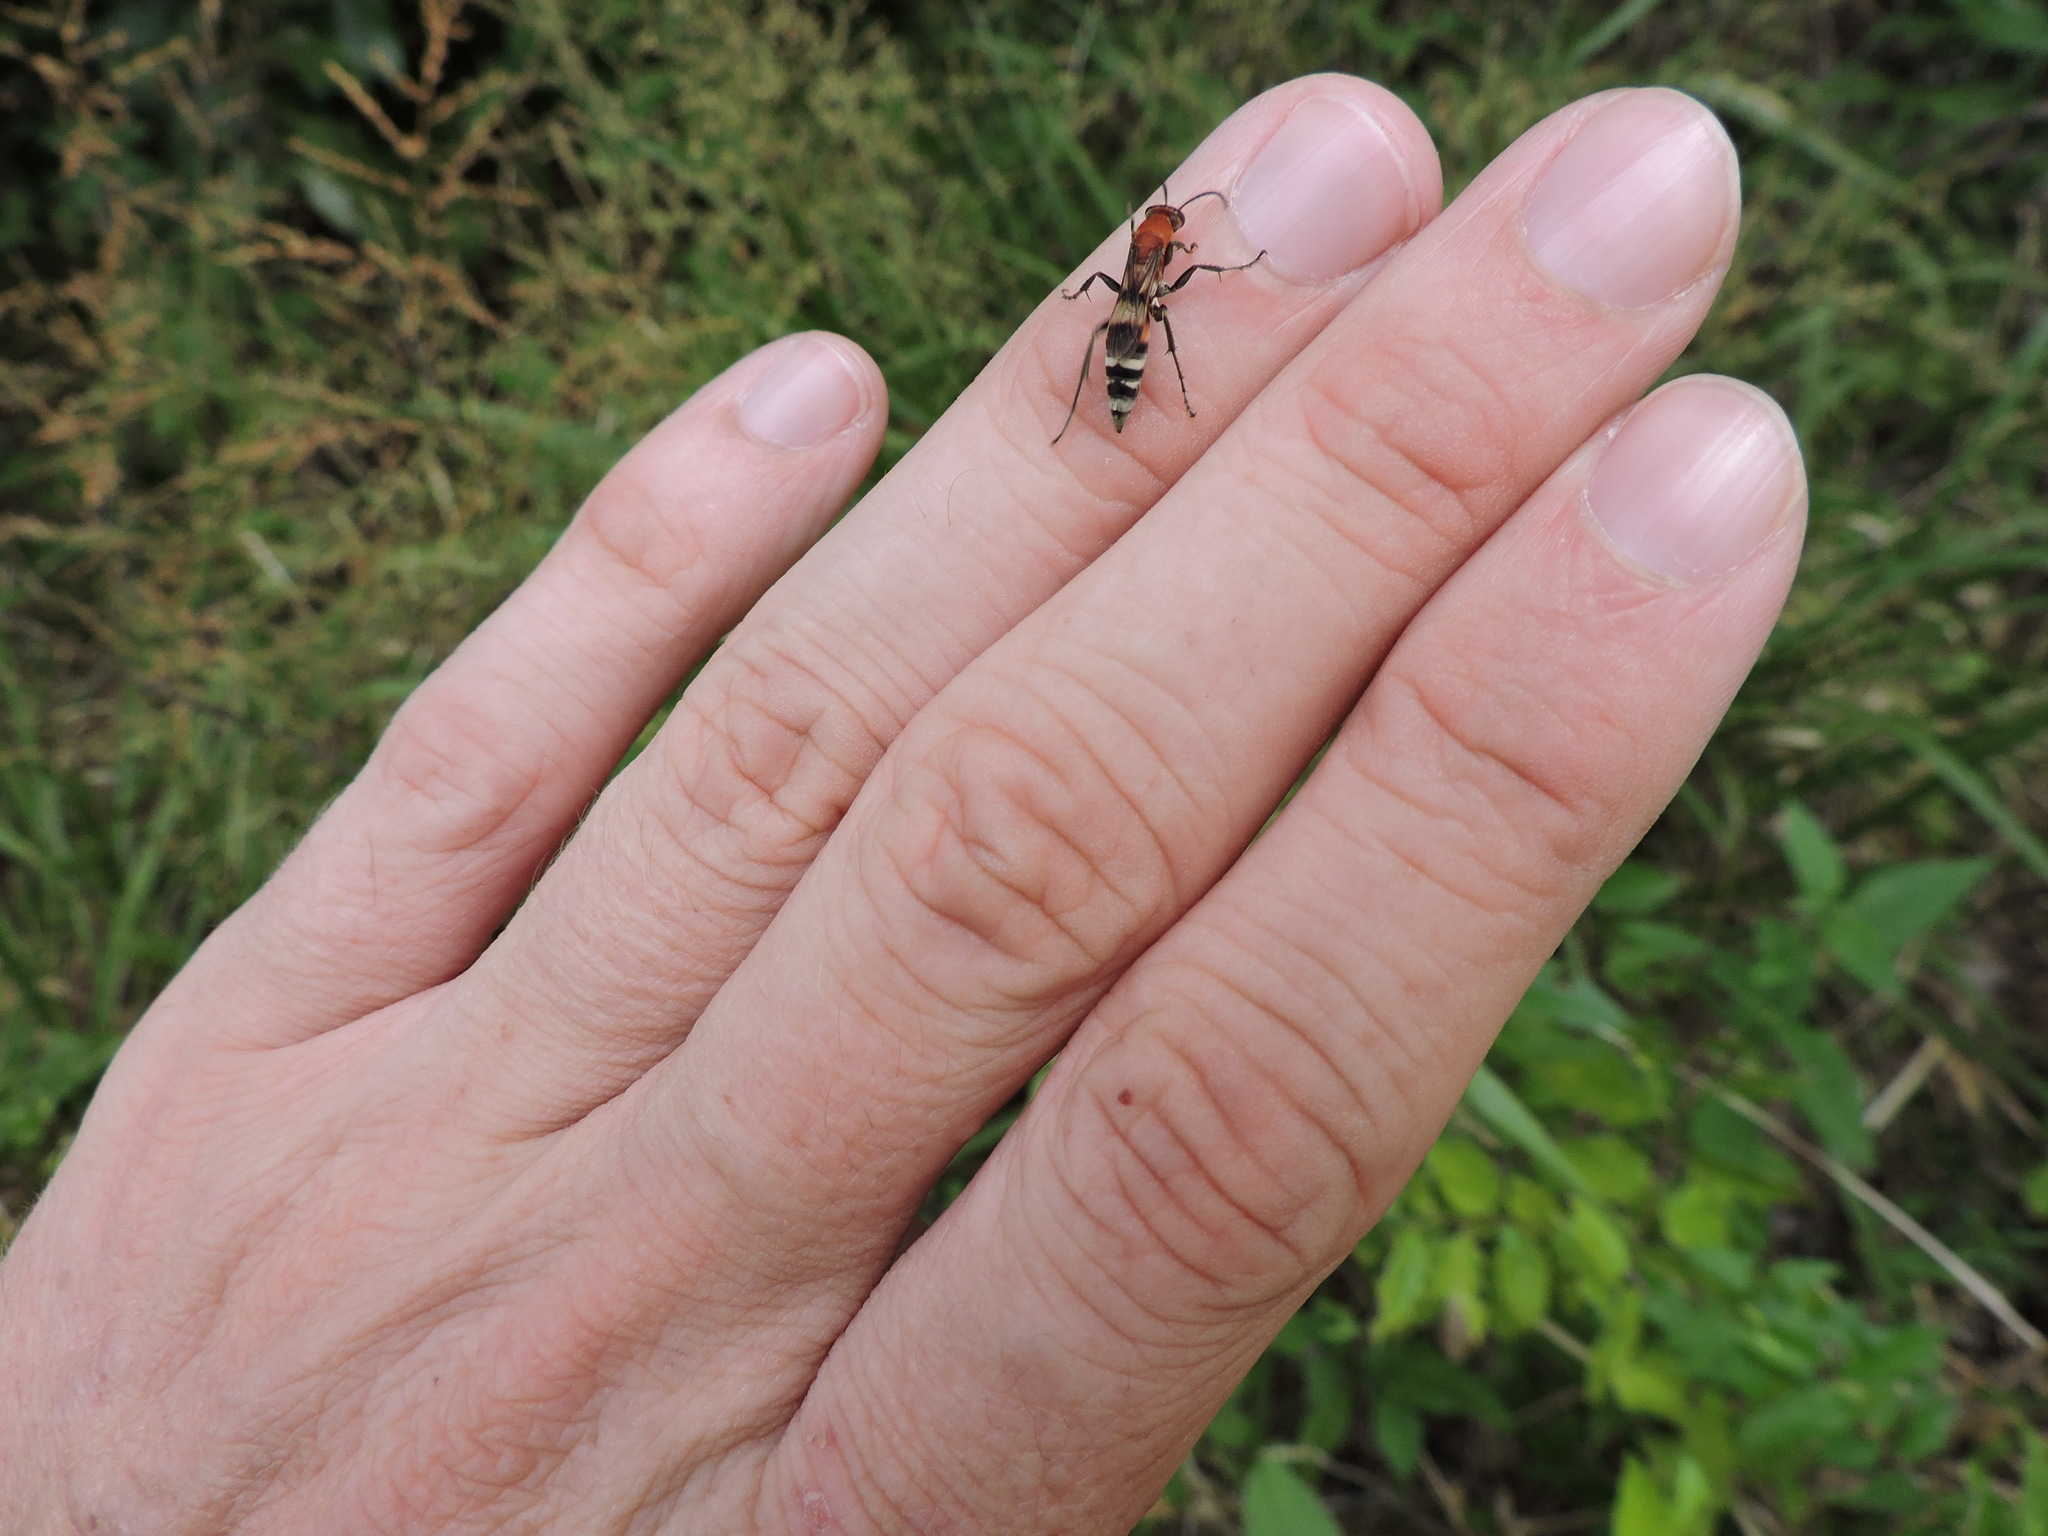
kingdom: Animalia
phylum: Arthropoda
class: Insecta
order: Hymenoptera
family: Pompilidae
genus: Psorthaspis
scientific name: Psorthaspis legata
